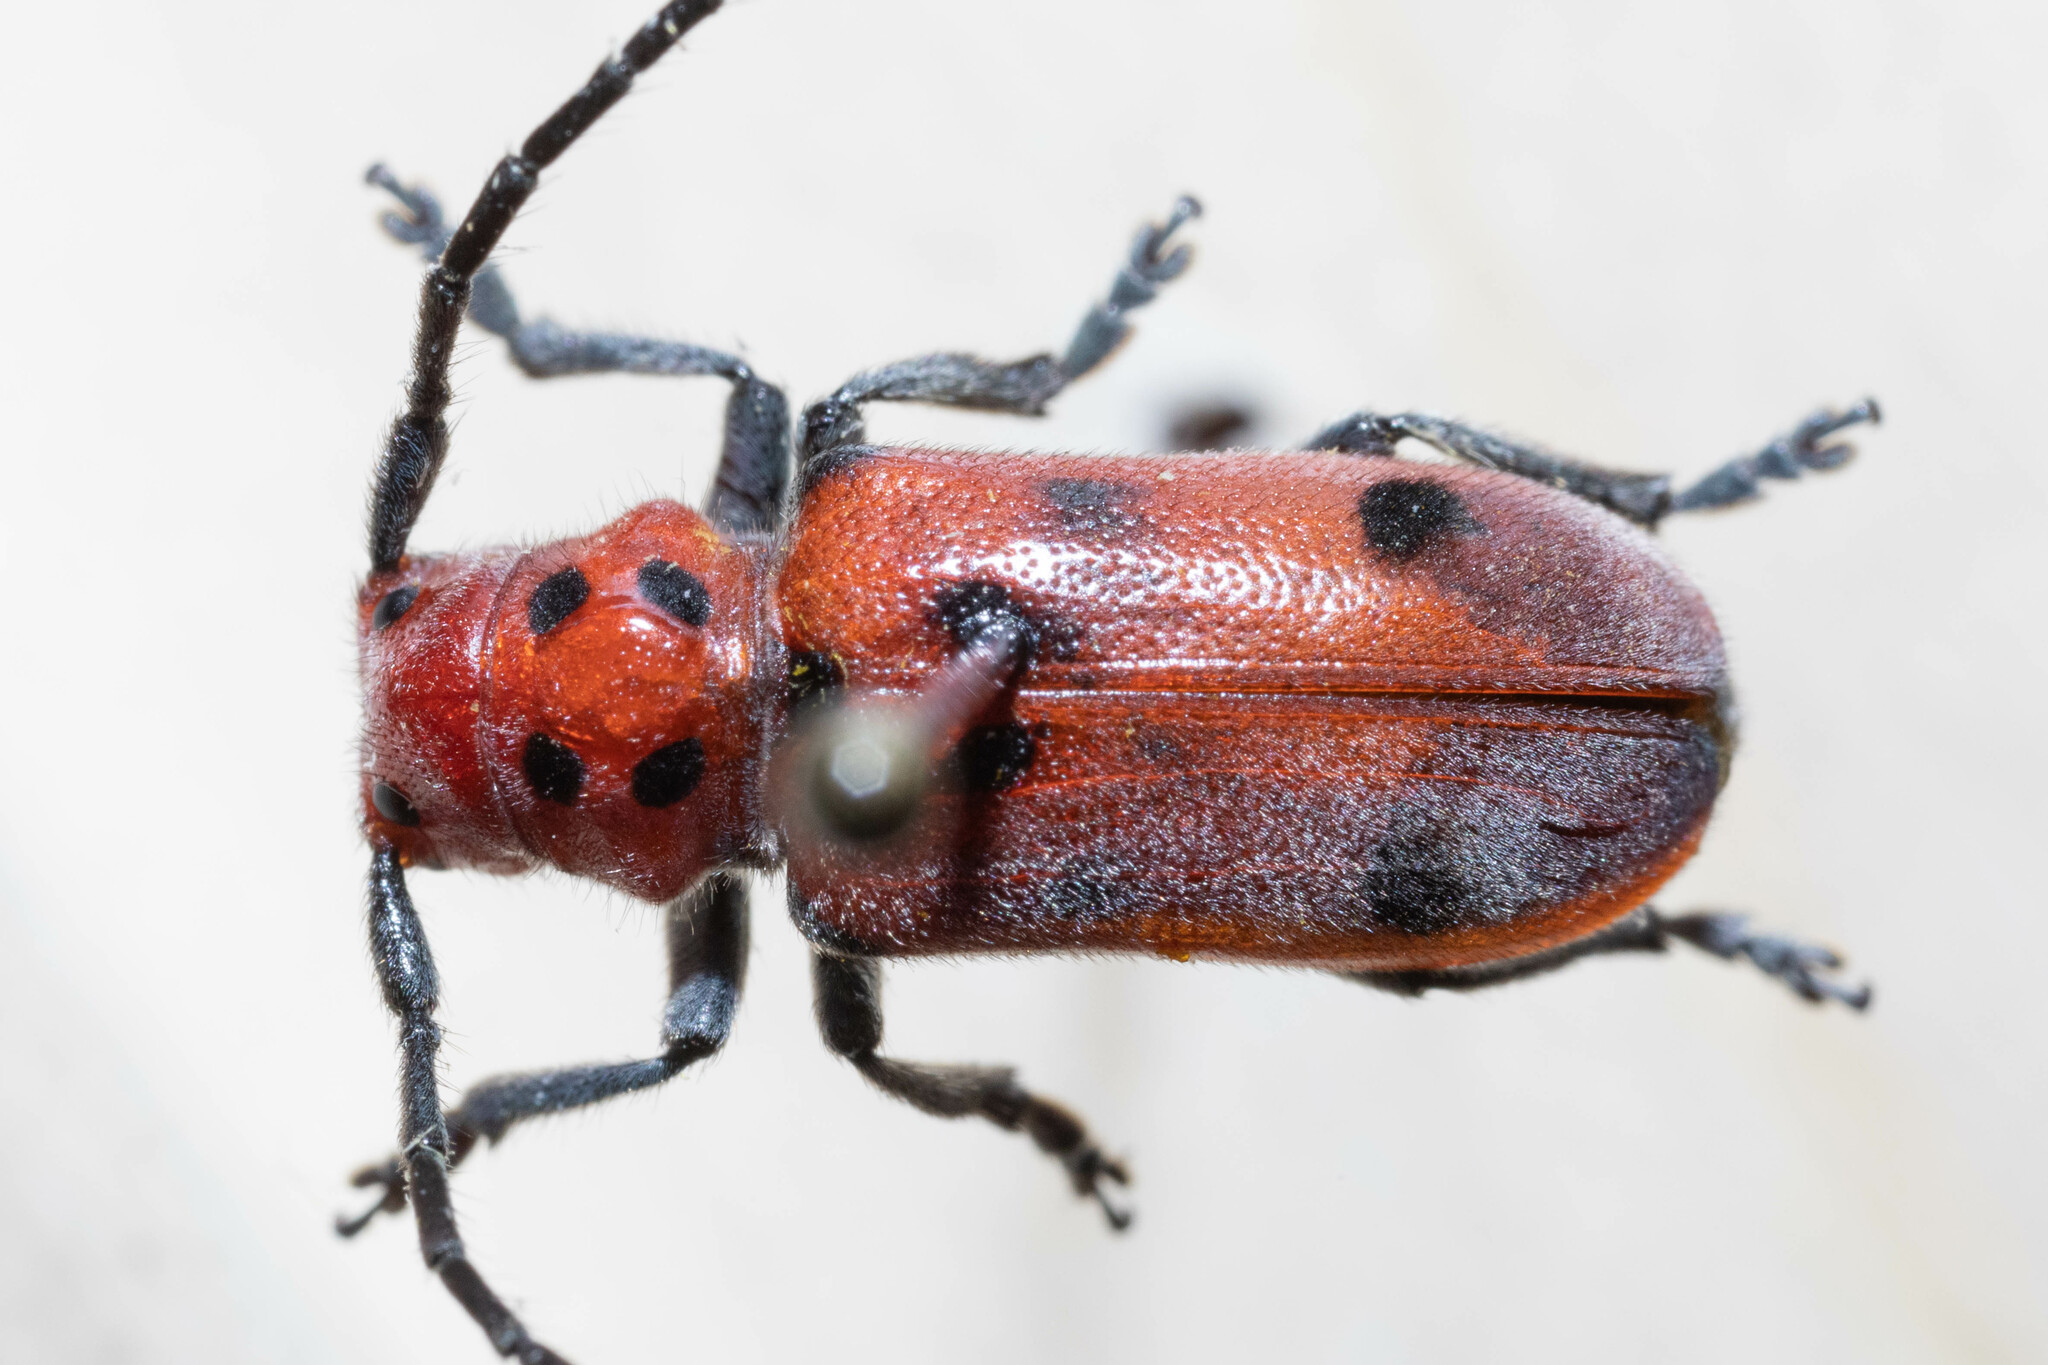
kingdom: Animalia
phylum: Arthropoda
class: Insecta
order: Coleoptera
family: Cerambycidae
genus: Tetraopes
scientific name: Tetraopes tetrophthalmus
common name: Red milkweed beetle
